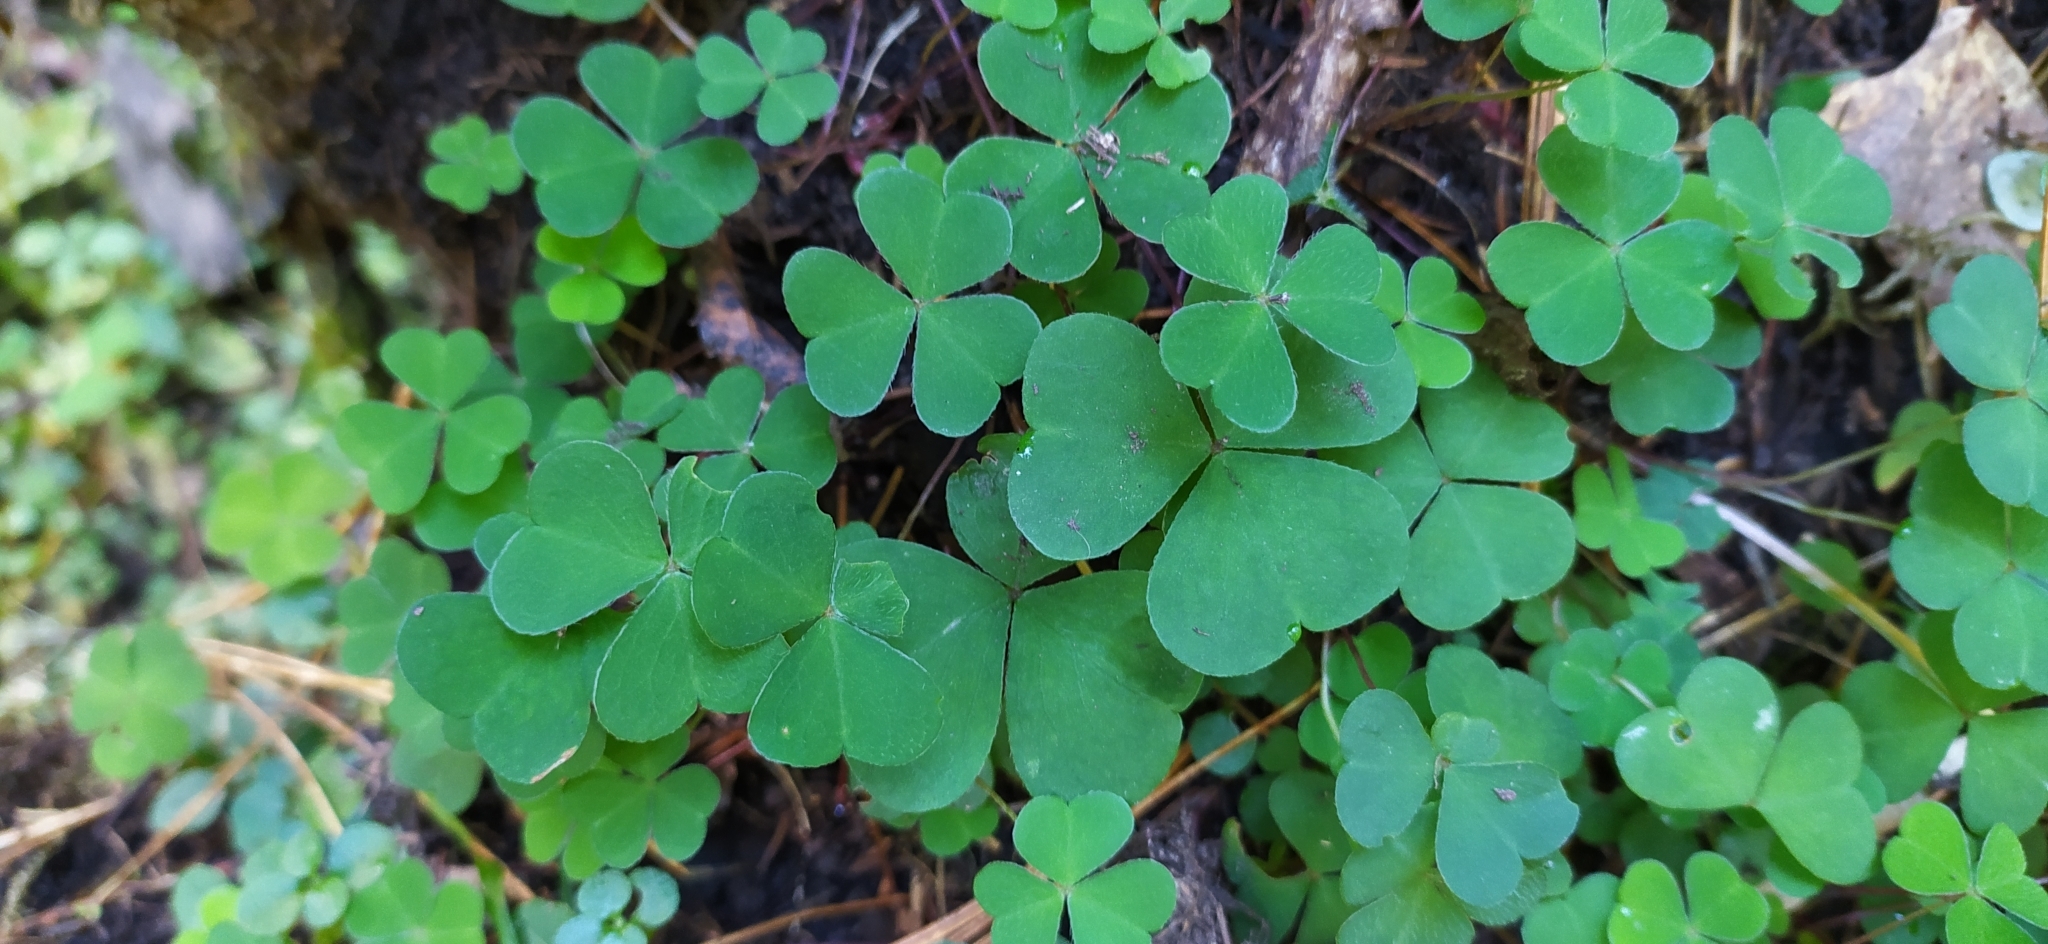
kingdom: Plantae
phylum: Tracheophyta
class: Magnoliopsida
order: Oxalidales
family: Oxalidaceae
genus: Oxalis
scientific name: Oxalis acetosella
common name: Wood-sorrel
